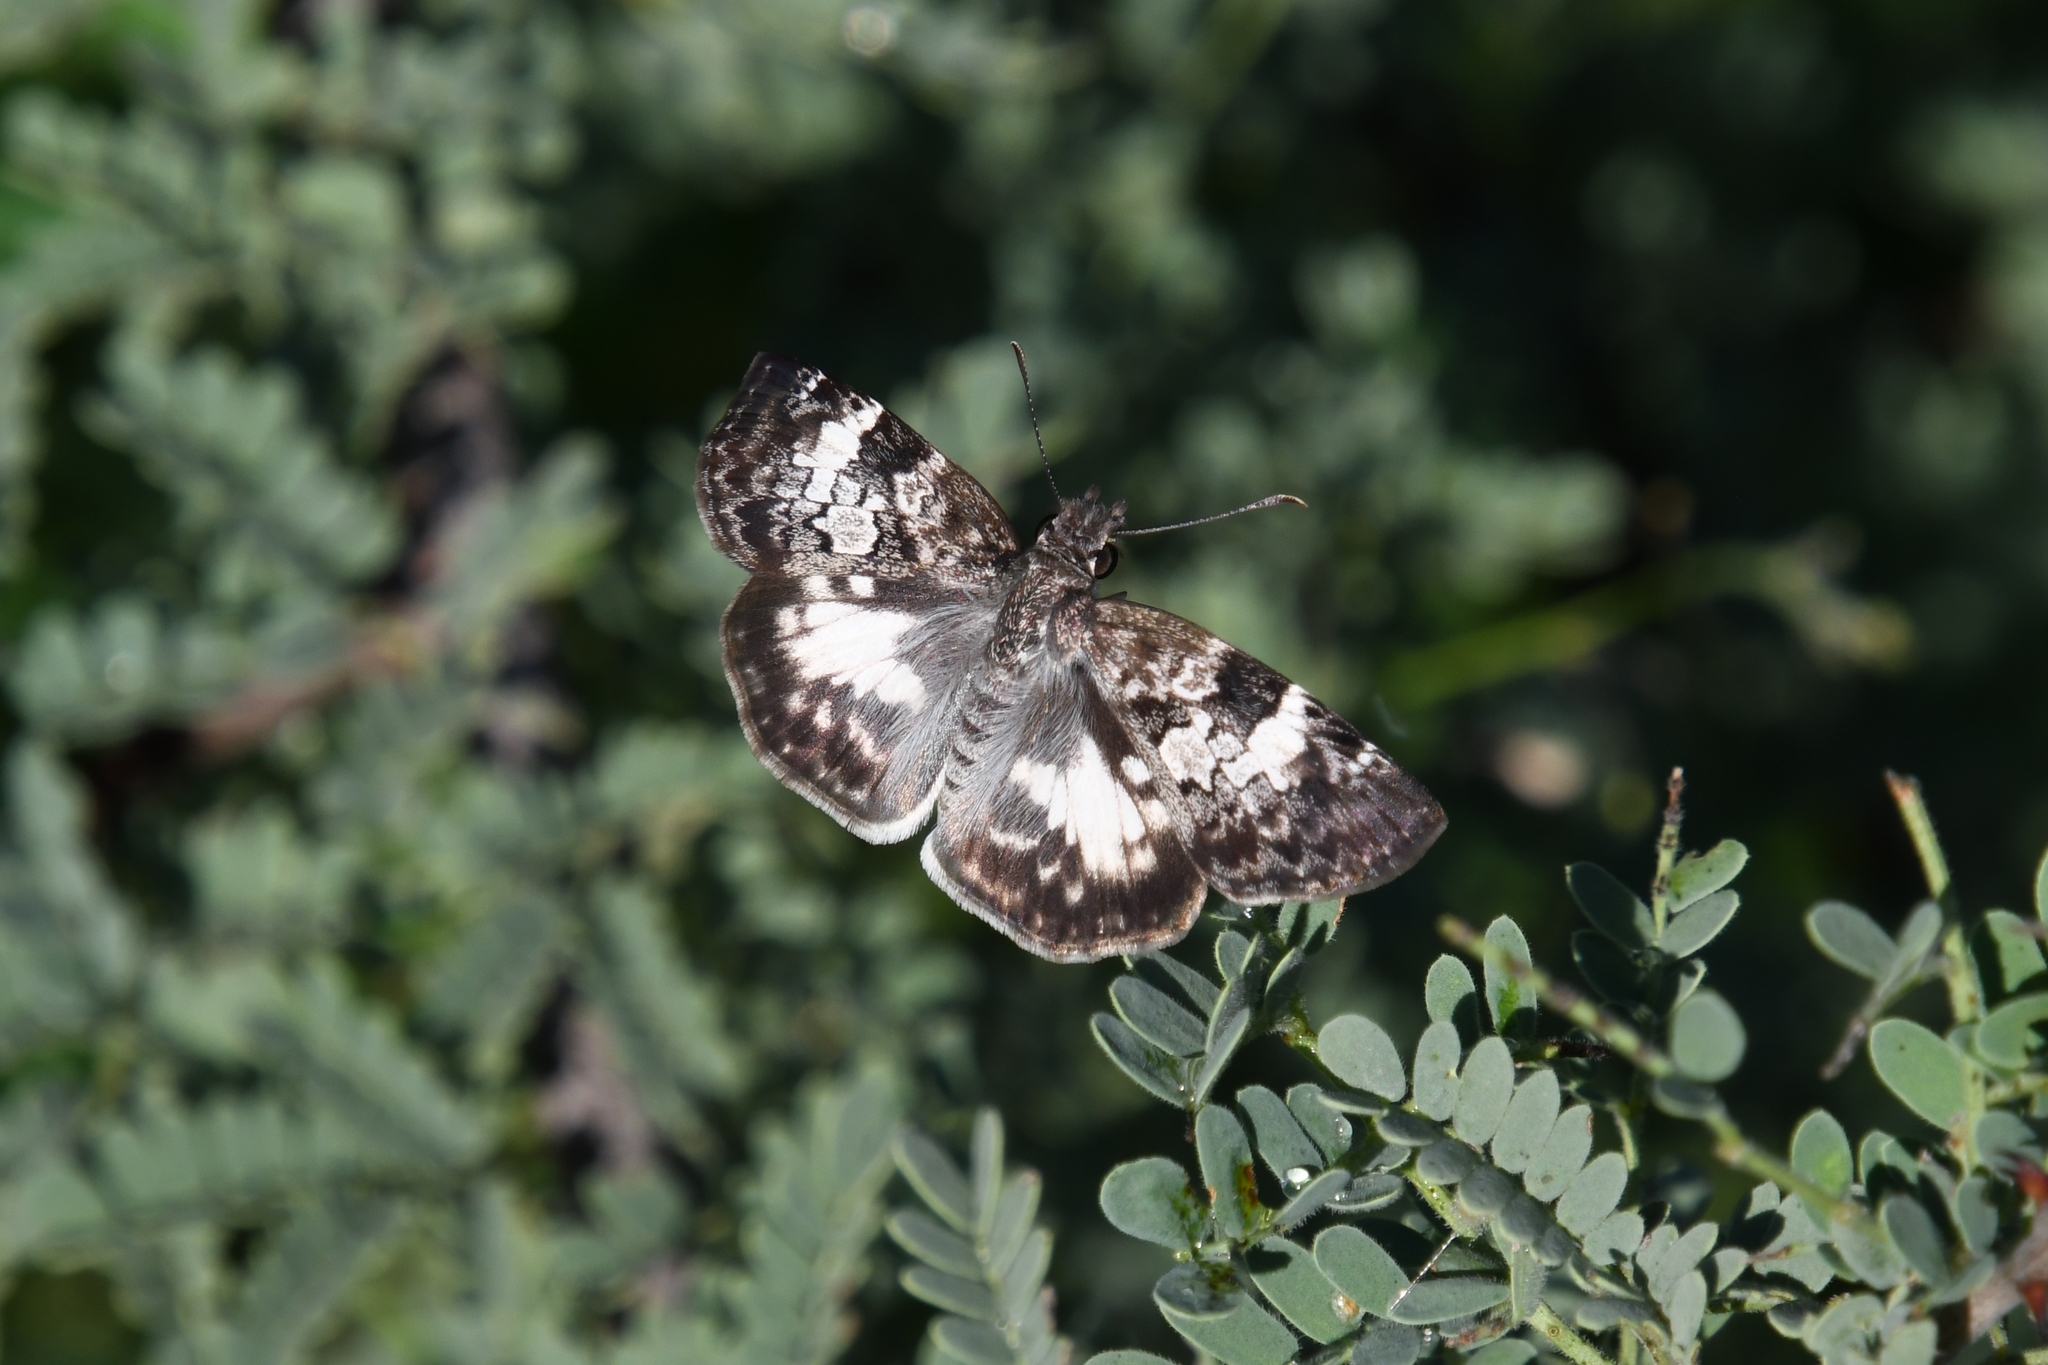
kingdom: Animalia
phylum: Arthropoda
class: Insecta
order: Lepidoptera
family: Hesperiidae
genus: Chiothion
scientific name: Chiothion georgina
